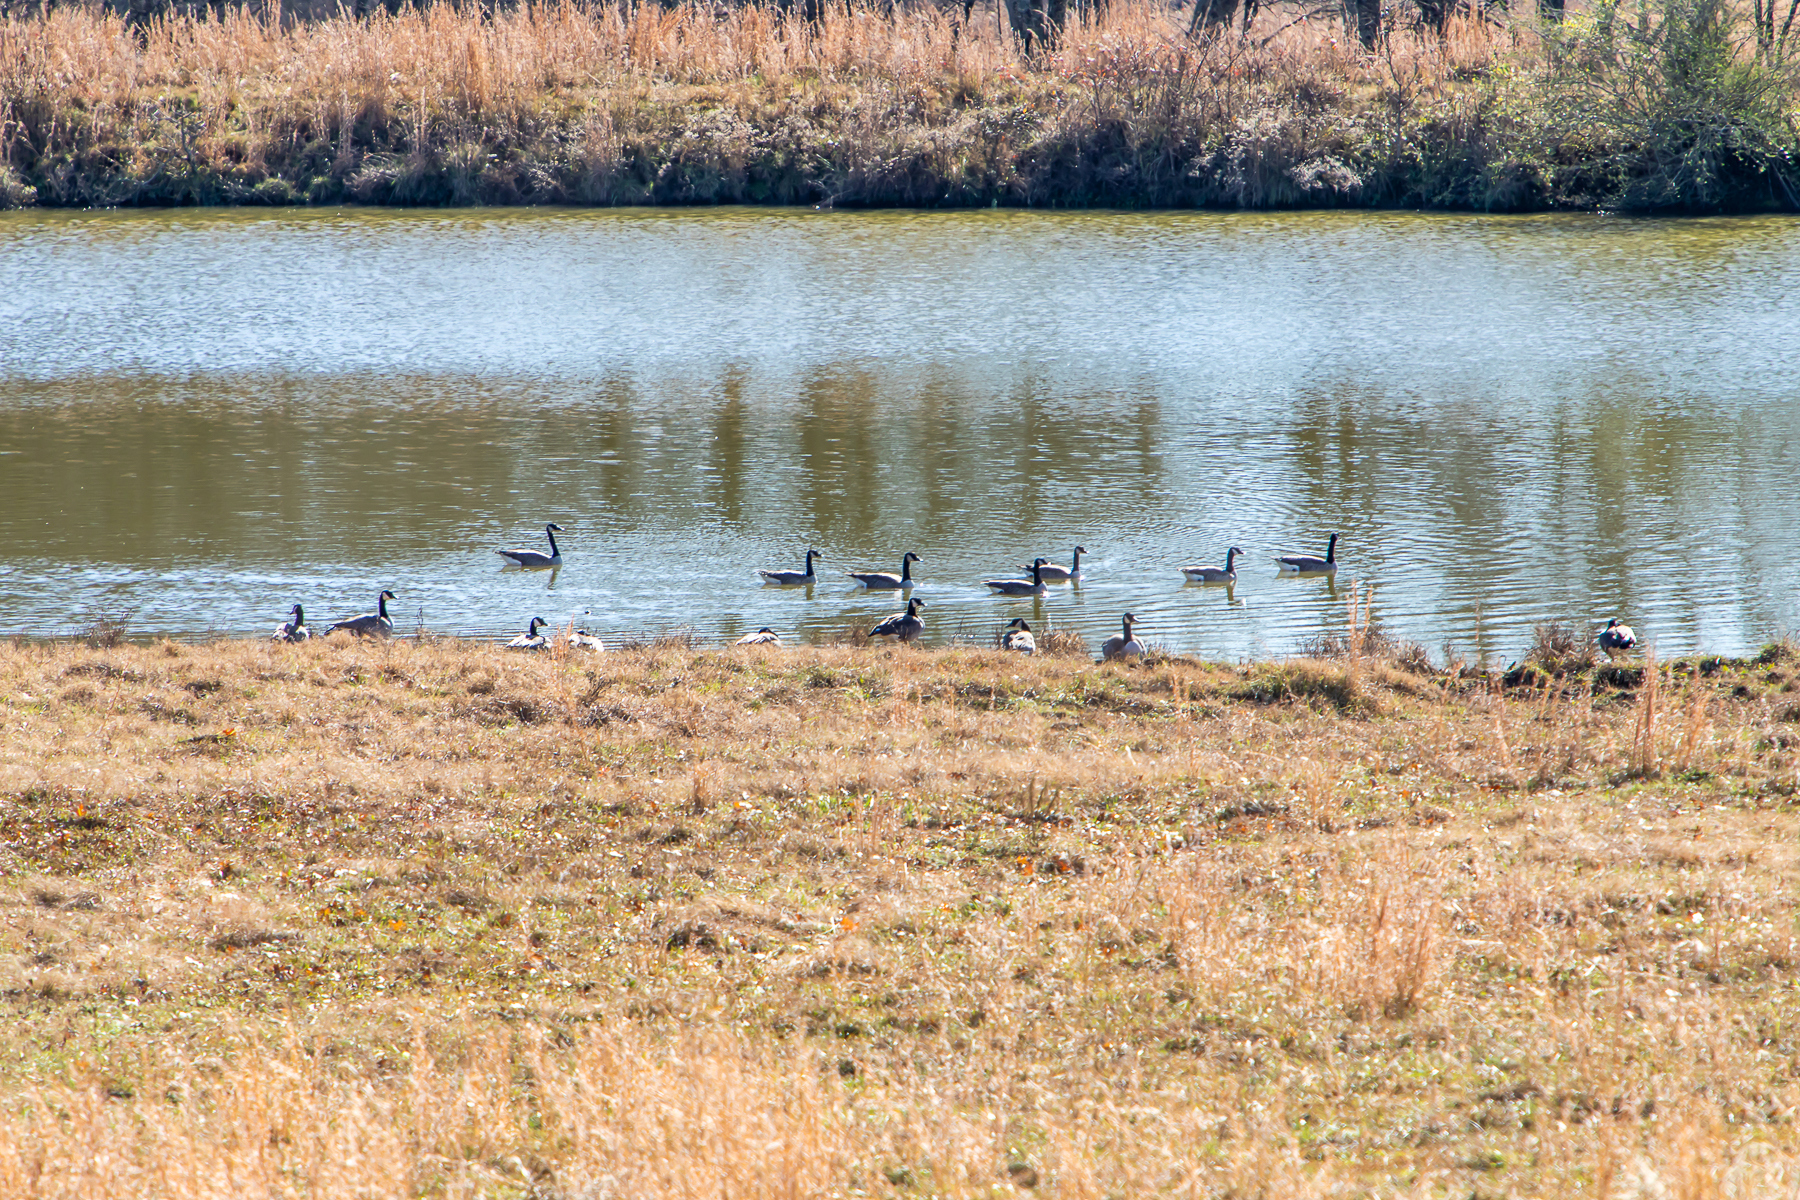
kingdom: Animalia
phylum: Chordata
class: Aves
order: Anseriformes
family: Anatidae
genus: Branta
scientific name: Branta canadensis
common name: Canada goose
